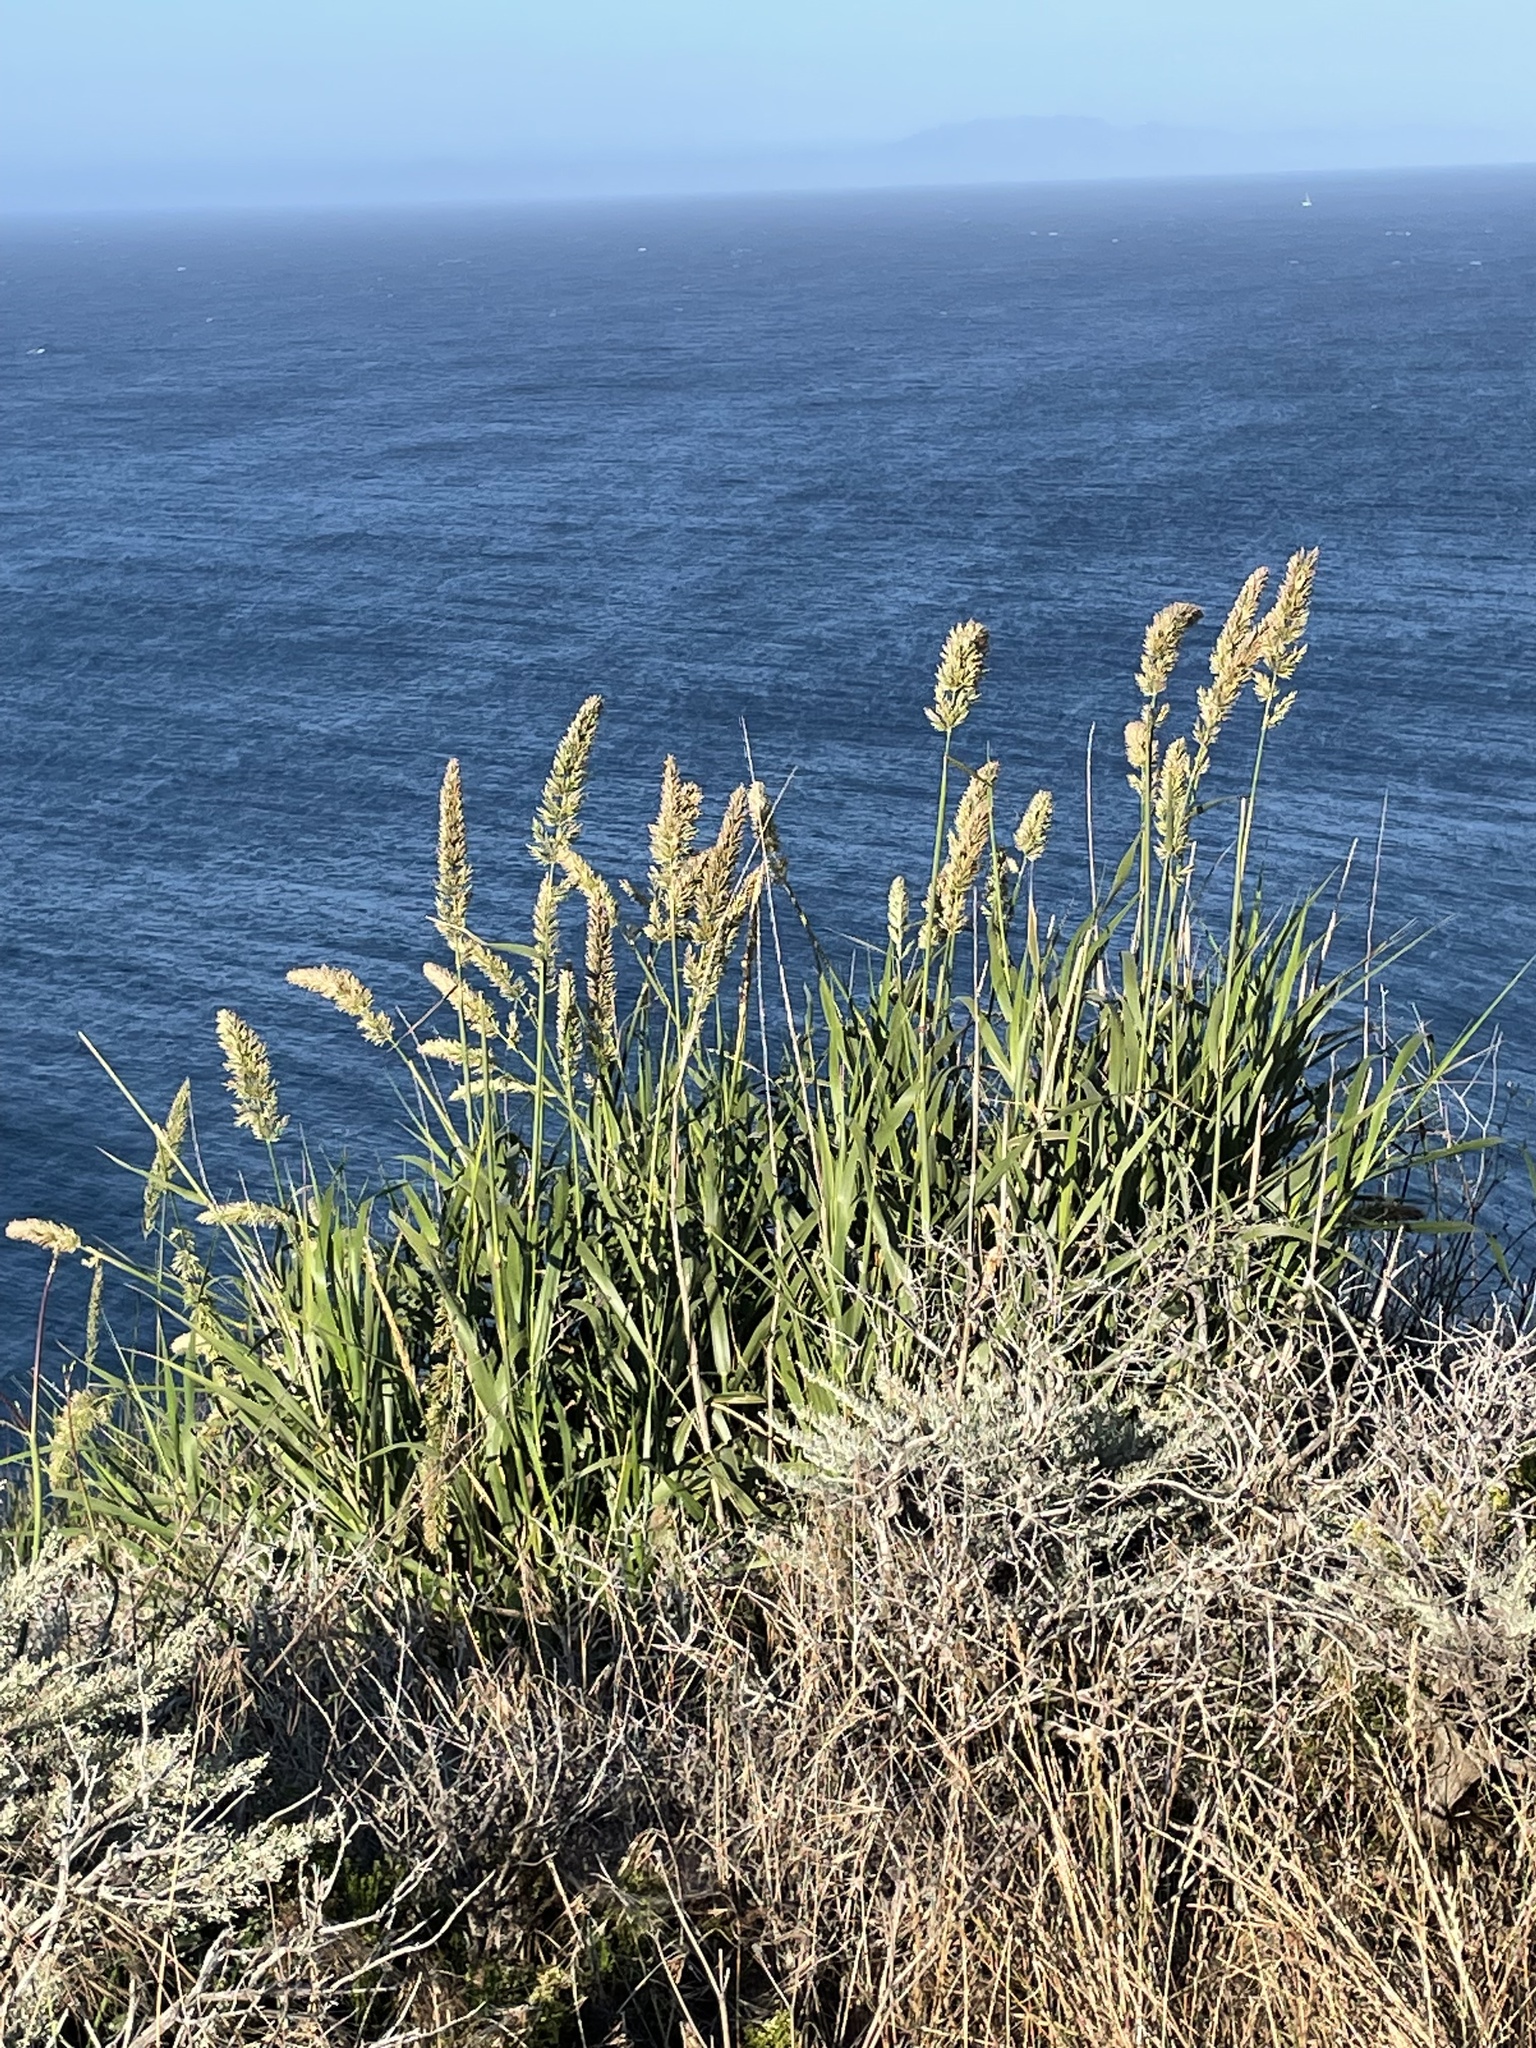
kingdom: Plantae
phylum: Tracheophyta
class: Liliopsida
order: Poales
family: Poaceae
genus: Leymus
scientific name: Leymus condensatus
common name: Giant wild rye
